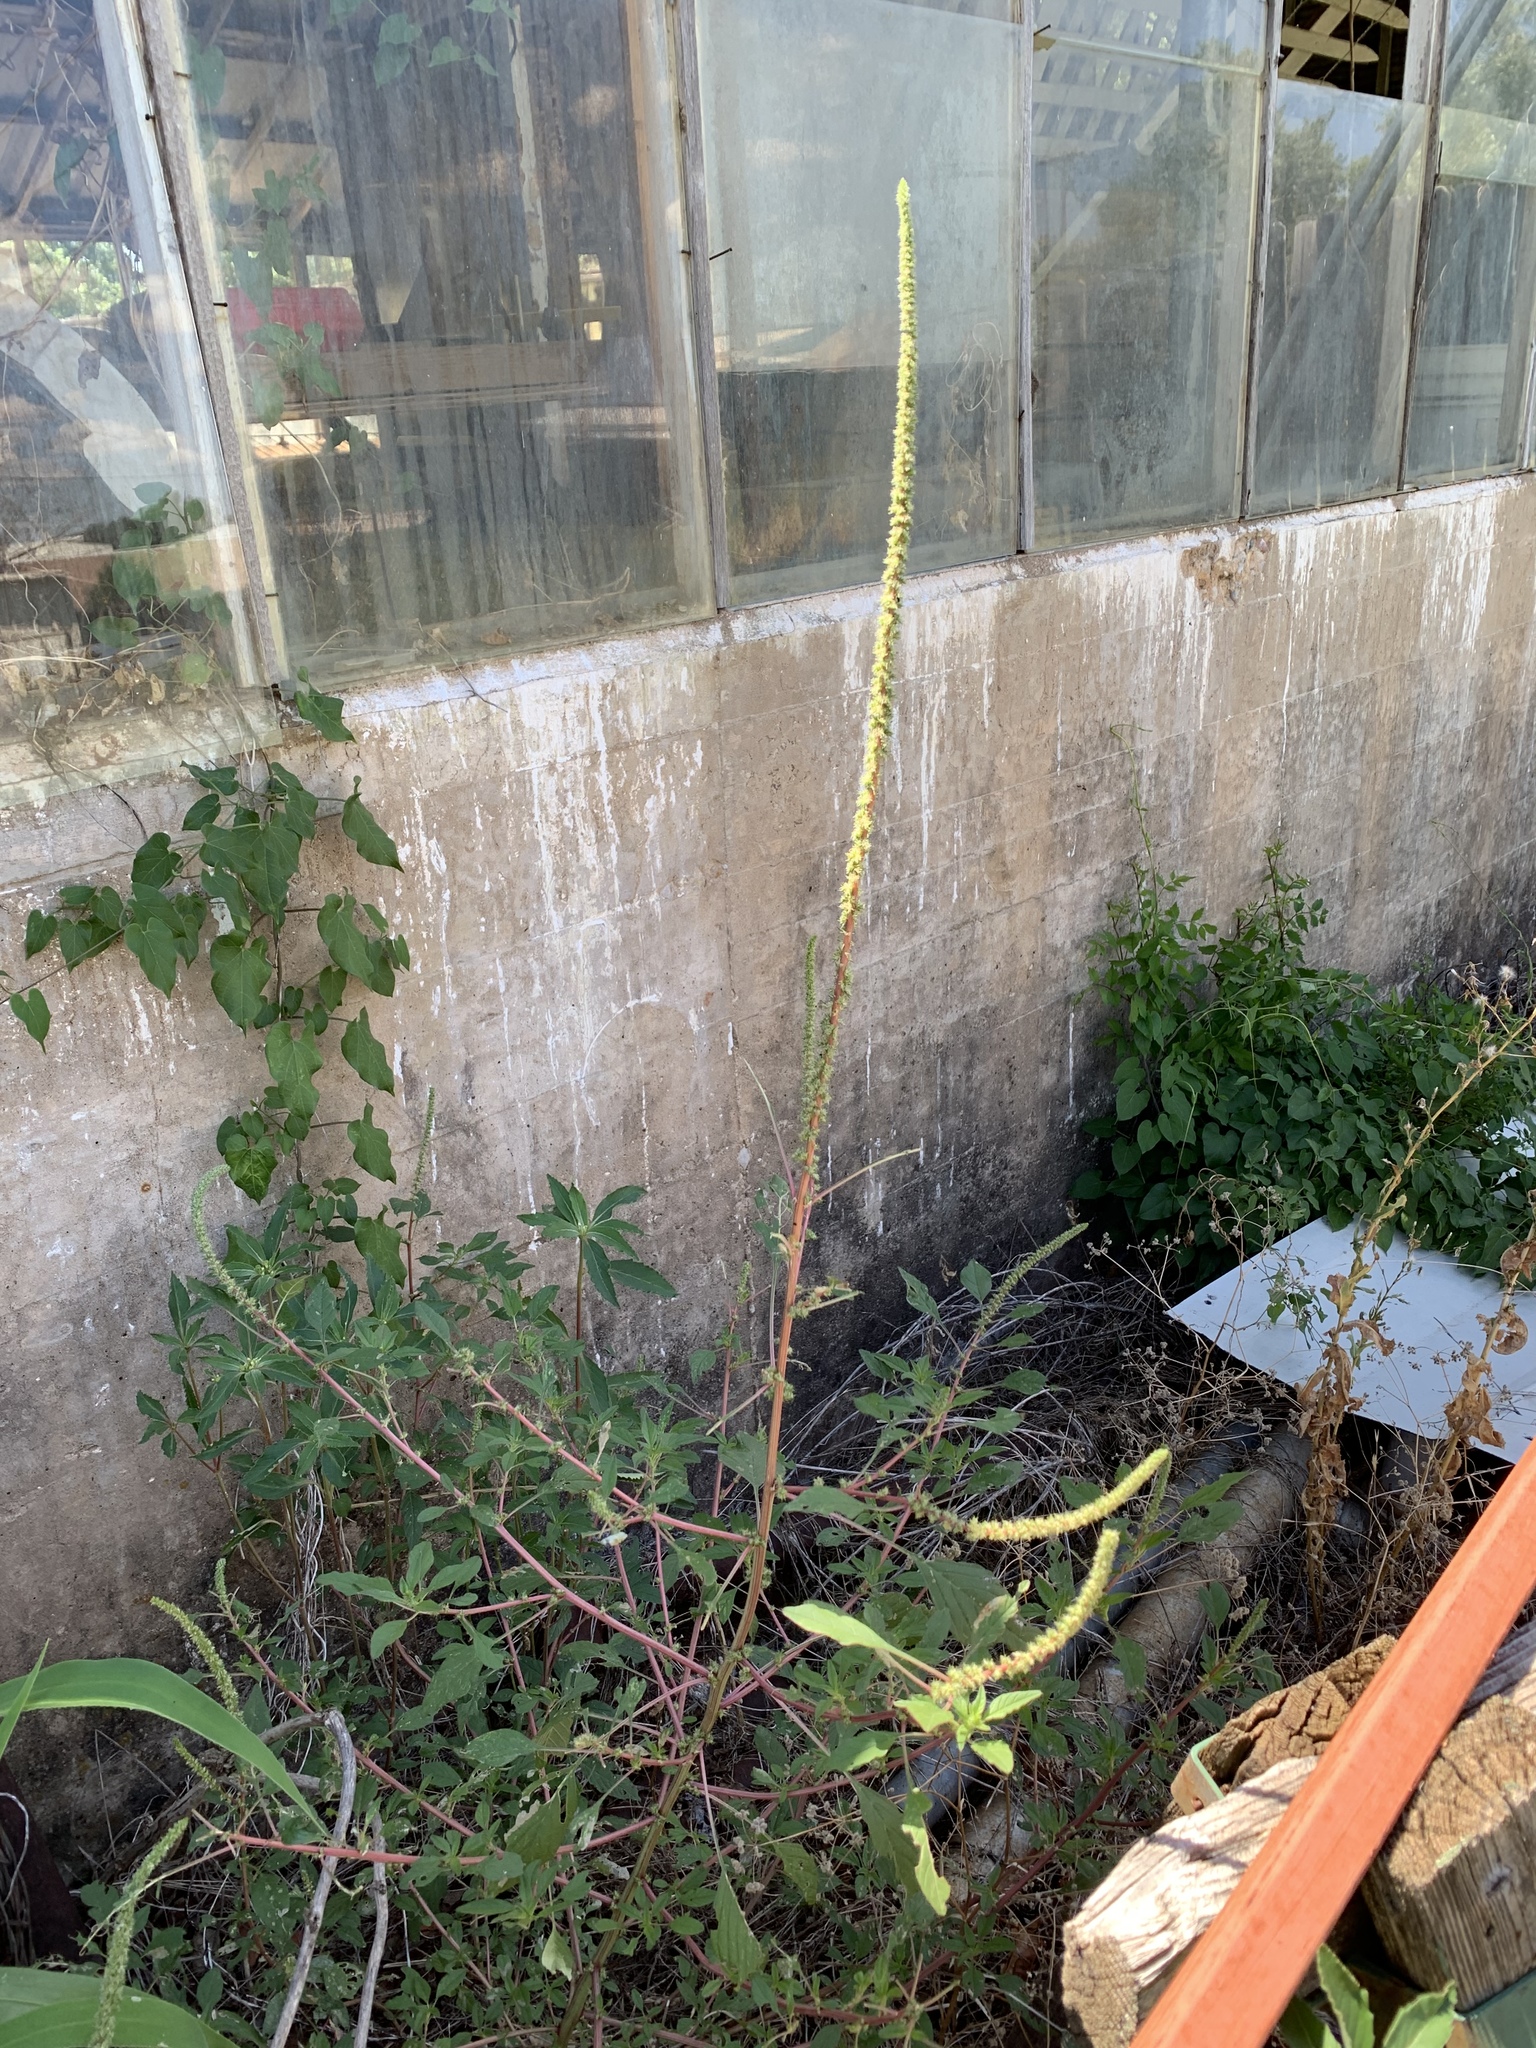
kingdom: Plantae
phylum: Tracheophyta
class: Magnoliopsida
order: Caryophyllales
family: Amaranthaceae
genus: Amaranthus
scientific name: Amaranthus palmeri
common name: Dioecious amaranth
